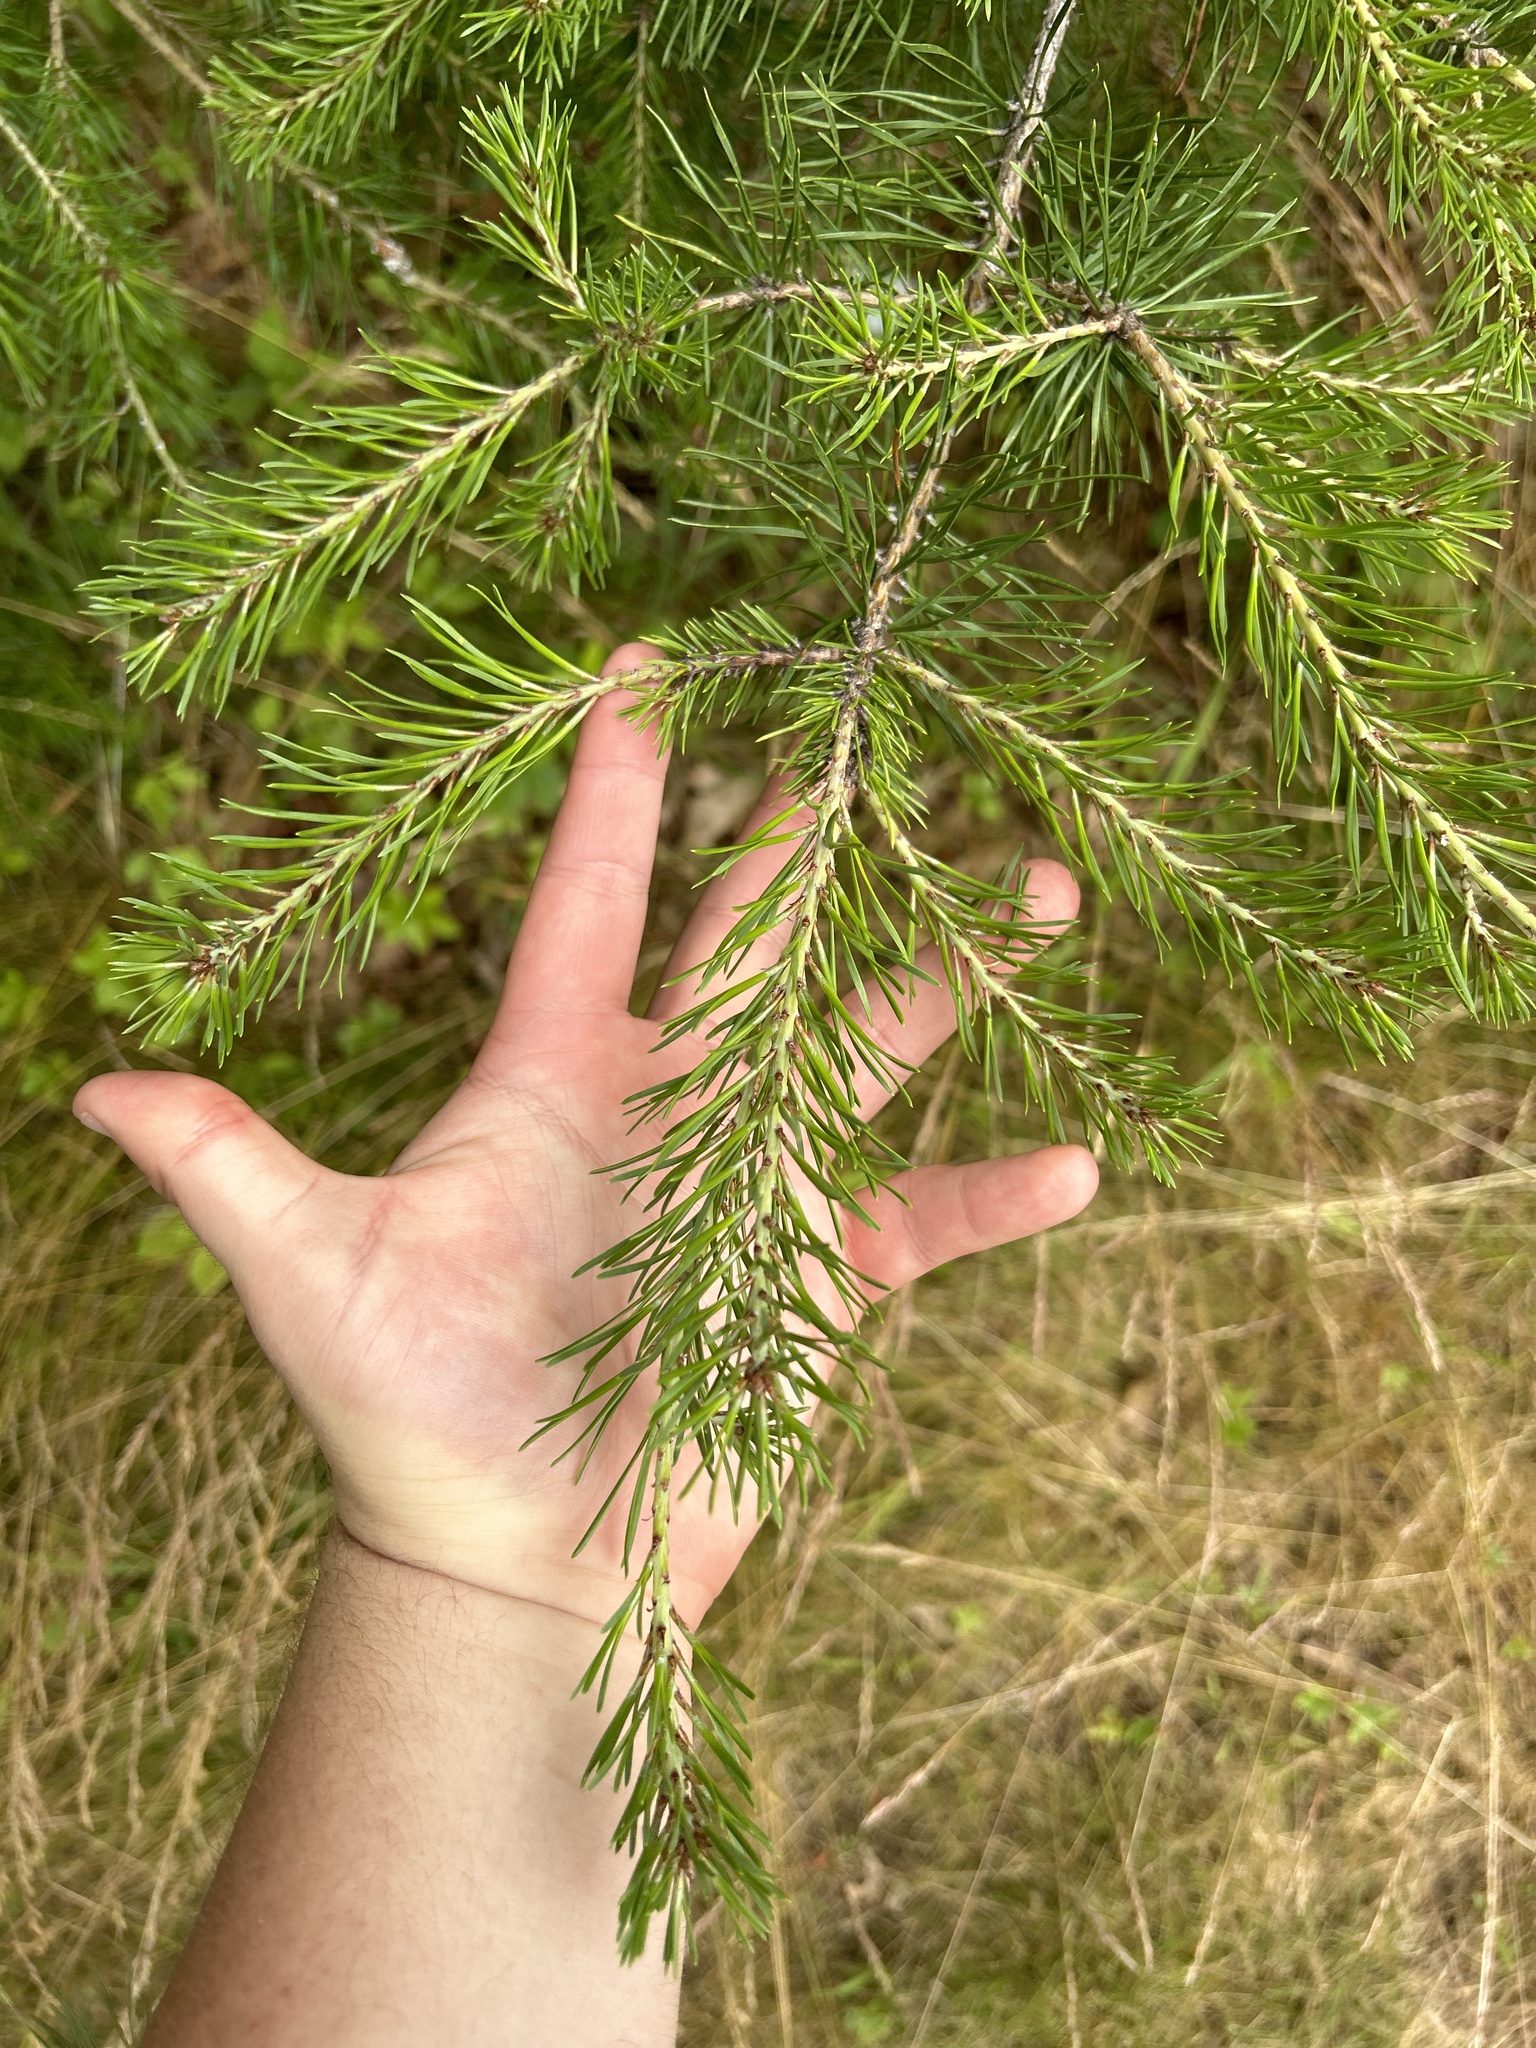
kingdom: Plantae
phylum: Tracheophyta
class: Pinopsida
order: Pinales
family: Pinaceae
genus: Pinus
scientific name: Pinus virginiana
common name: Scrub pine
